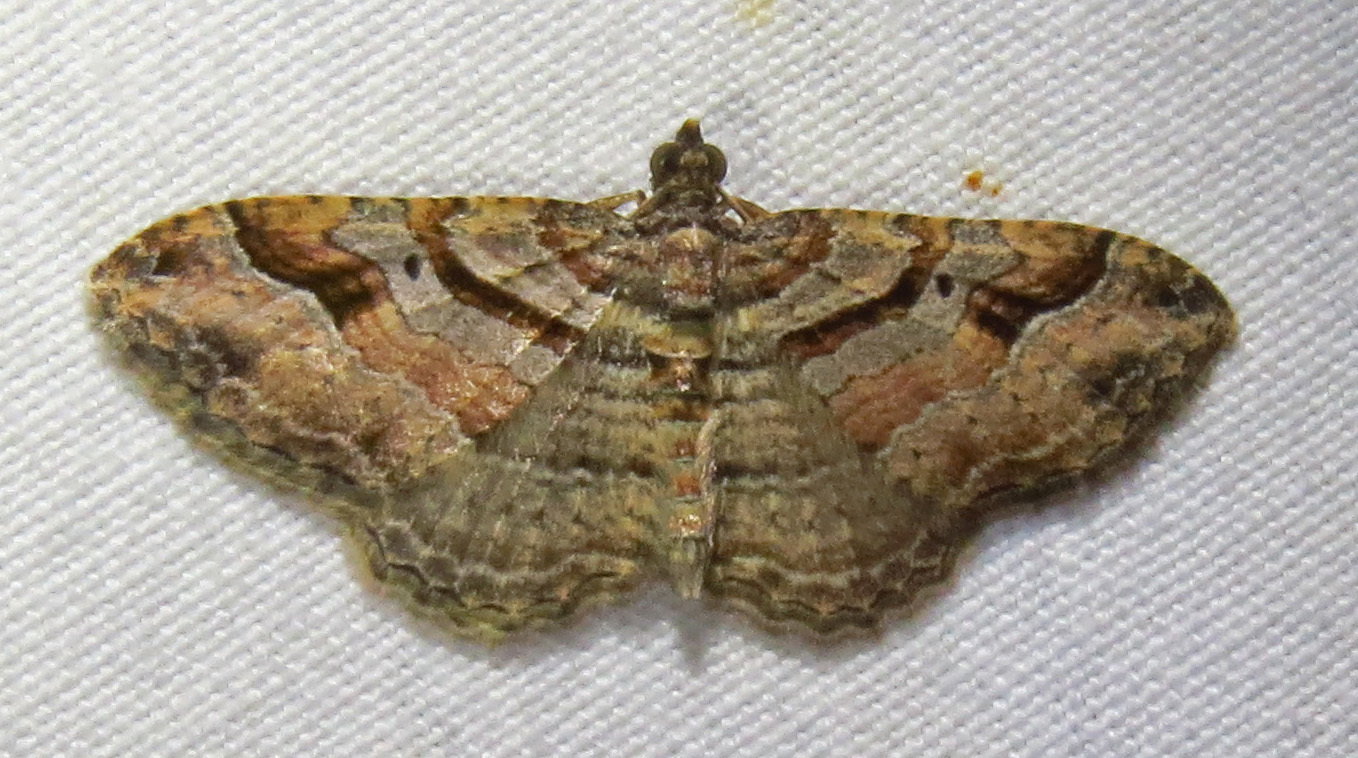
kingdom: Animalia
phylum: Arthropoda
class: Insecta
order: Lepidoptera
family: Geometridae
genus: Costaconvexa
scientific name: Costaconvexa centrostrigaria
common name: Bent-line carpet
